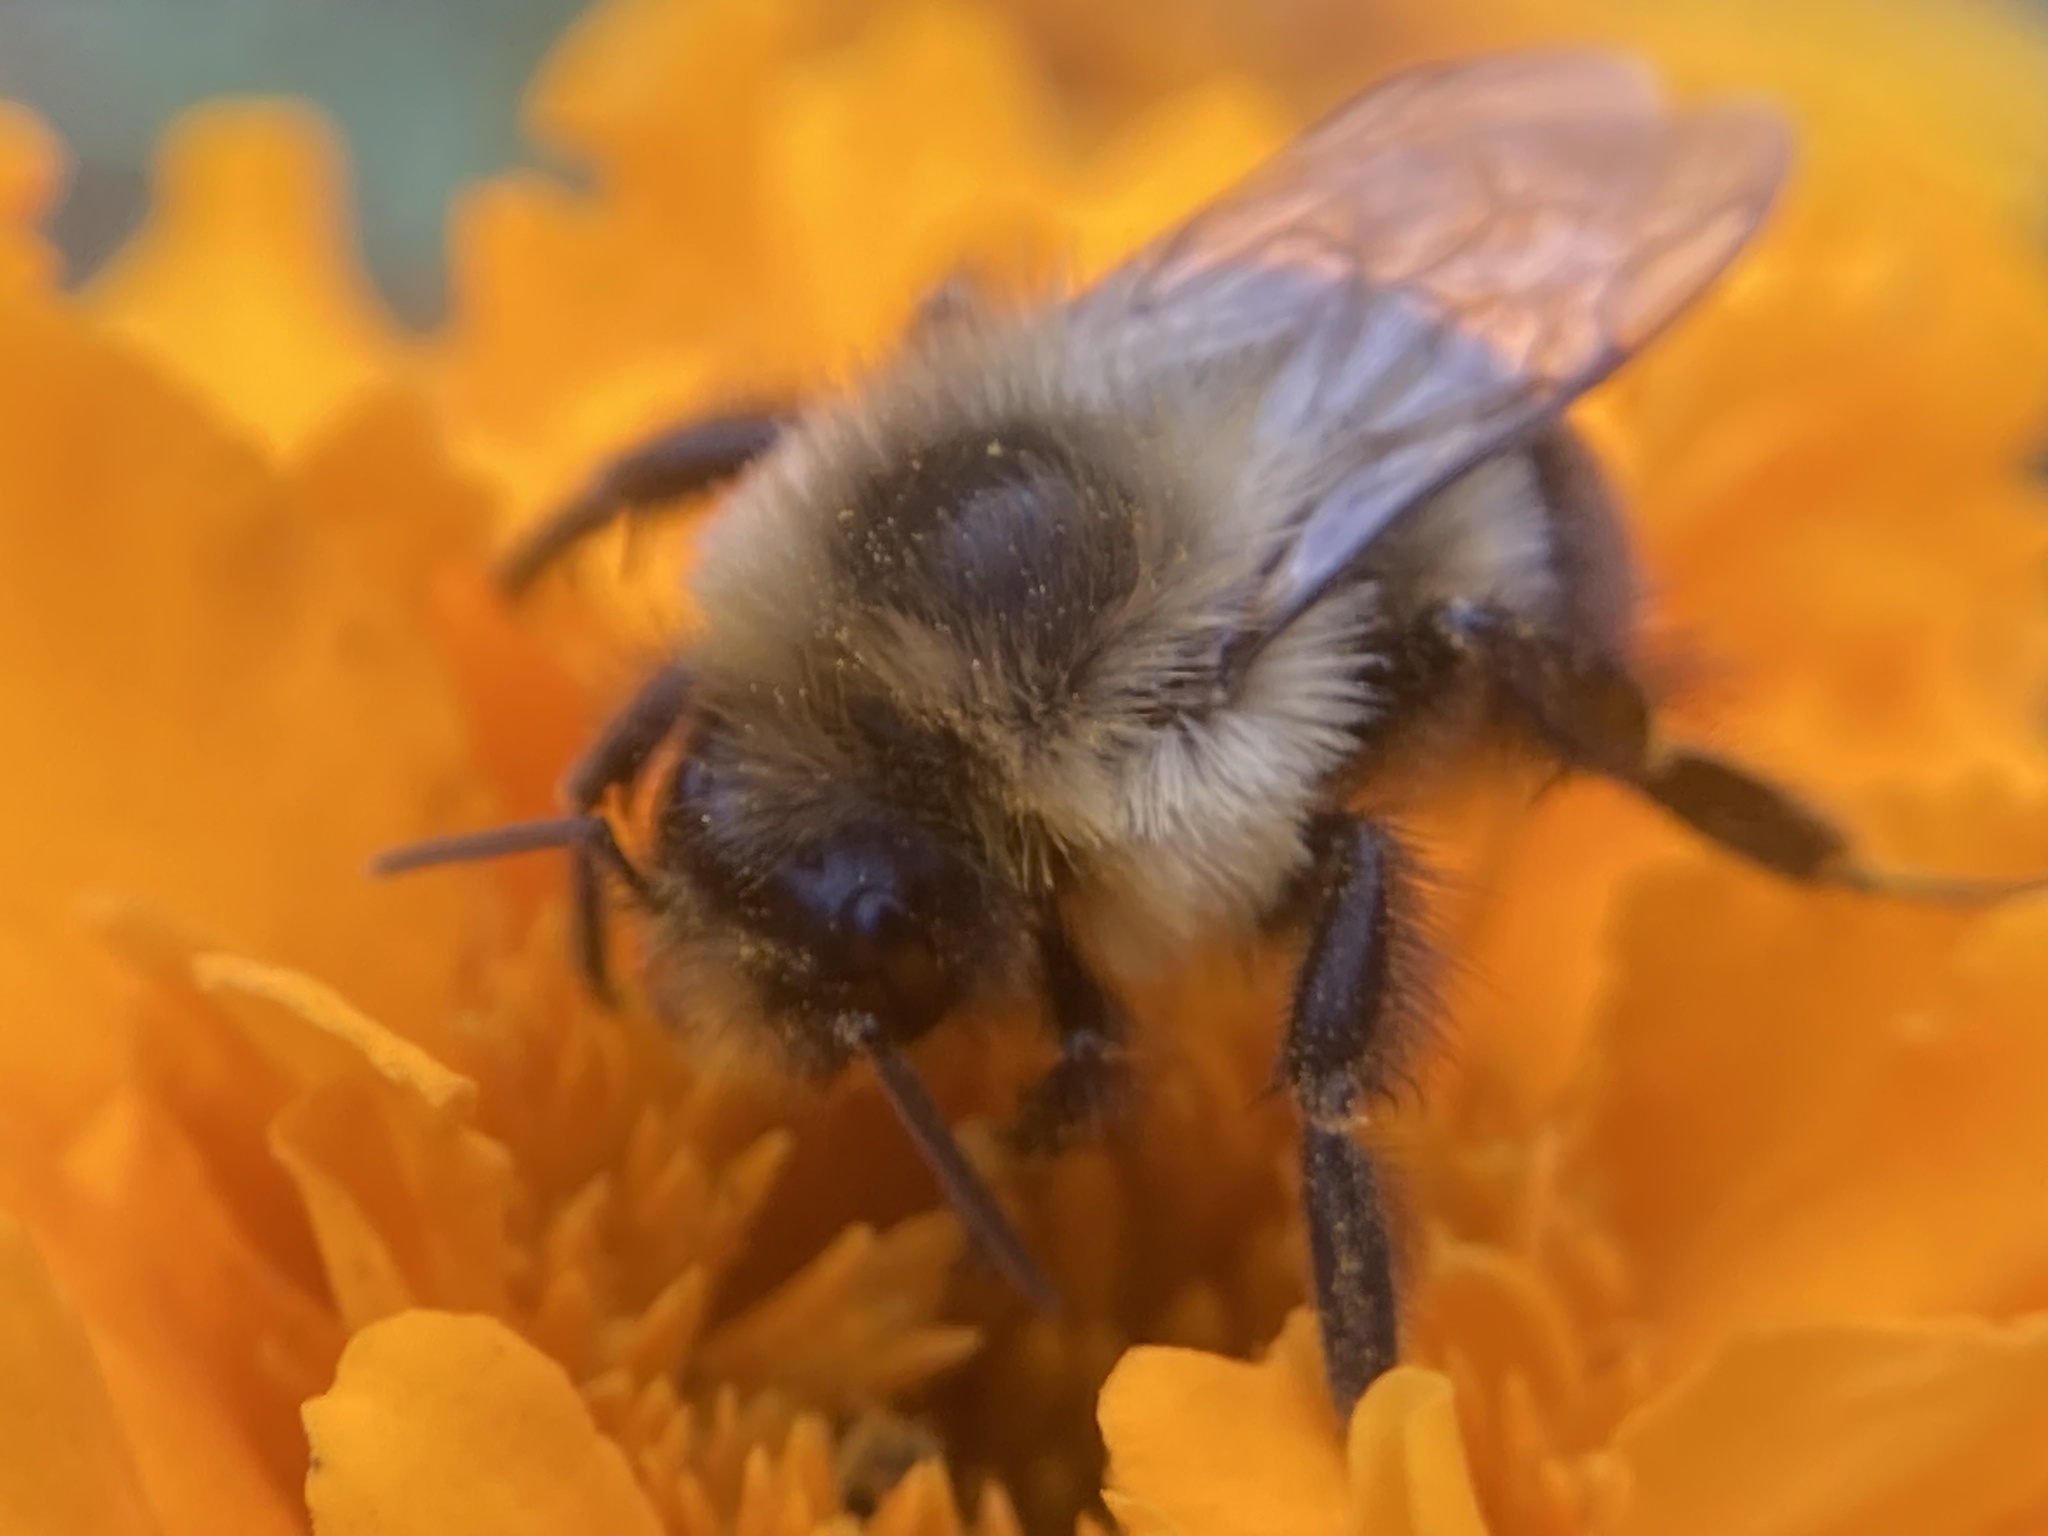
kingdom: Animalia
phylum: Arthropoda
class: Insecta
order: Hymenoptera
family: Apidae
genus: Bombus
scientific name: Bombus impatiens
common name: Common eastern bumble bee
